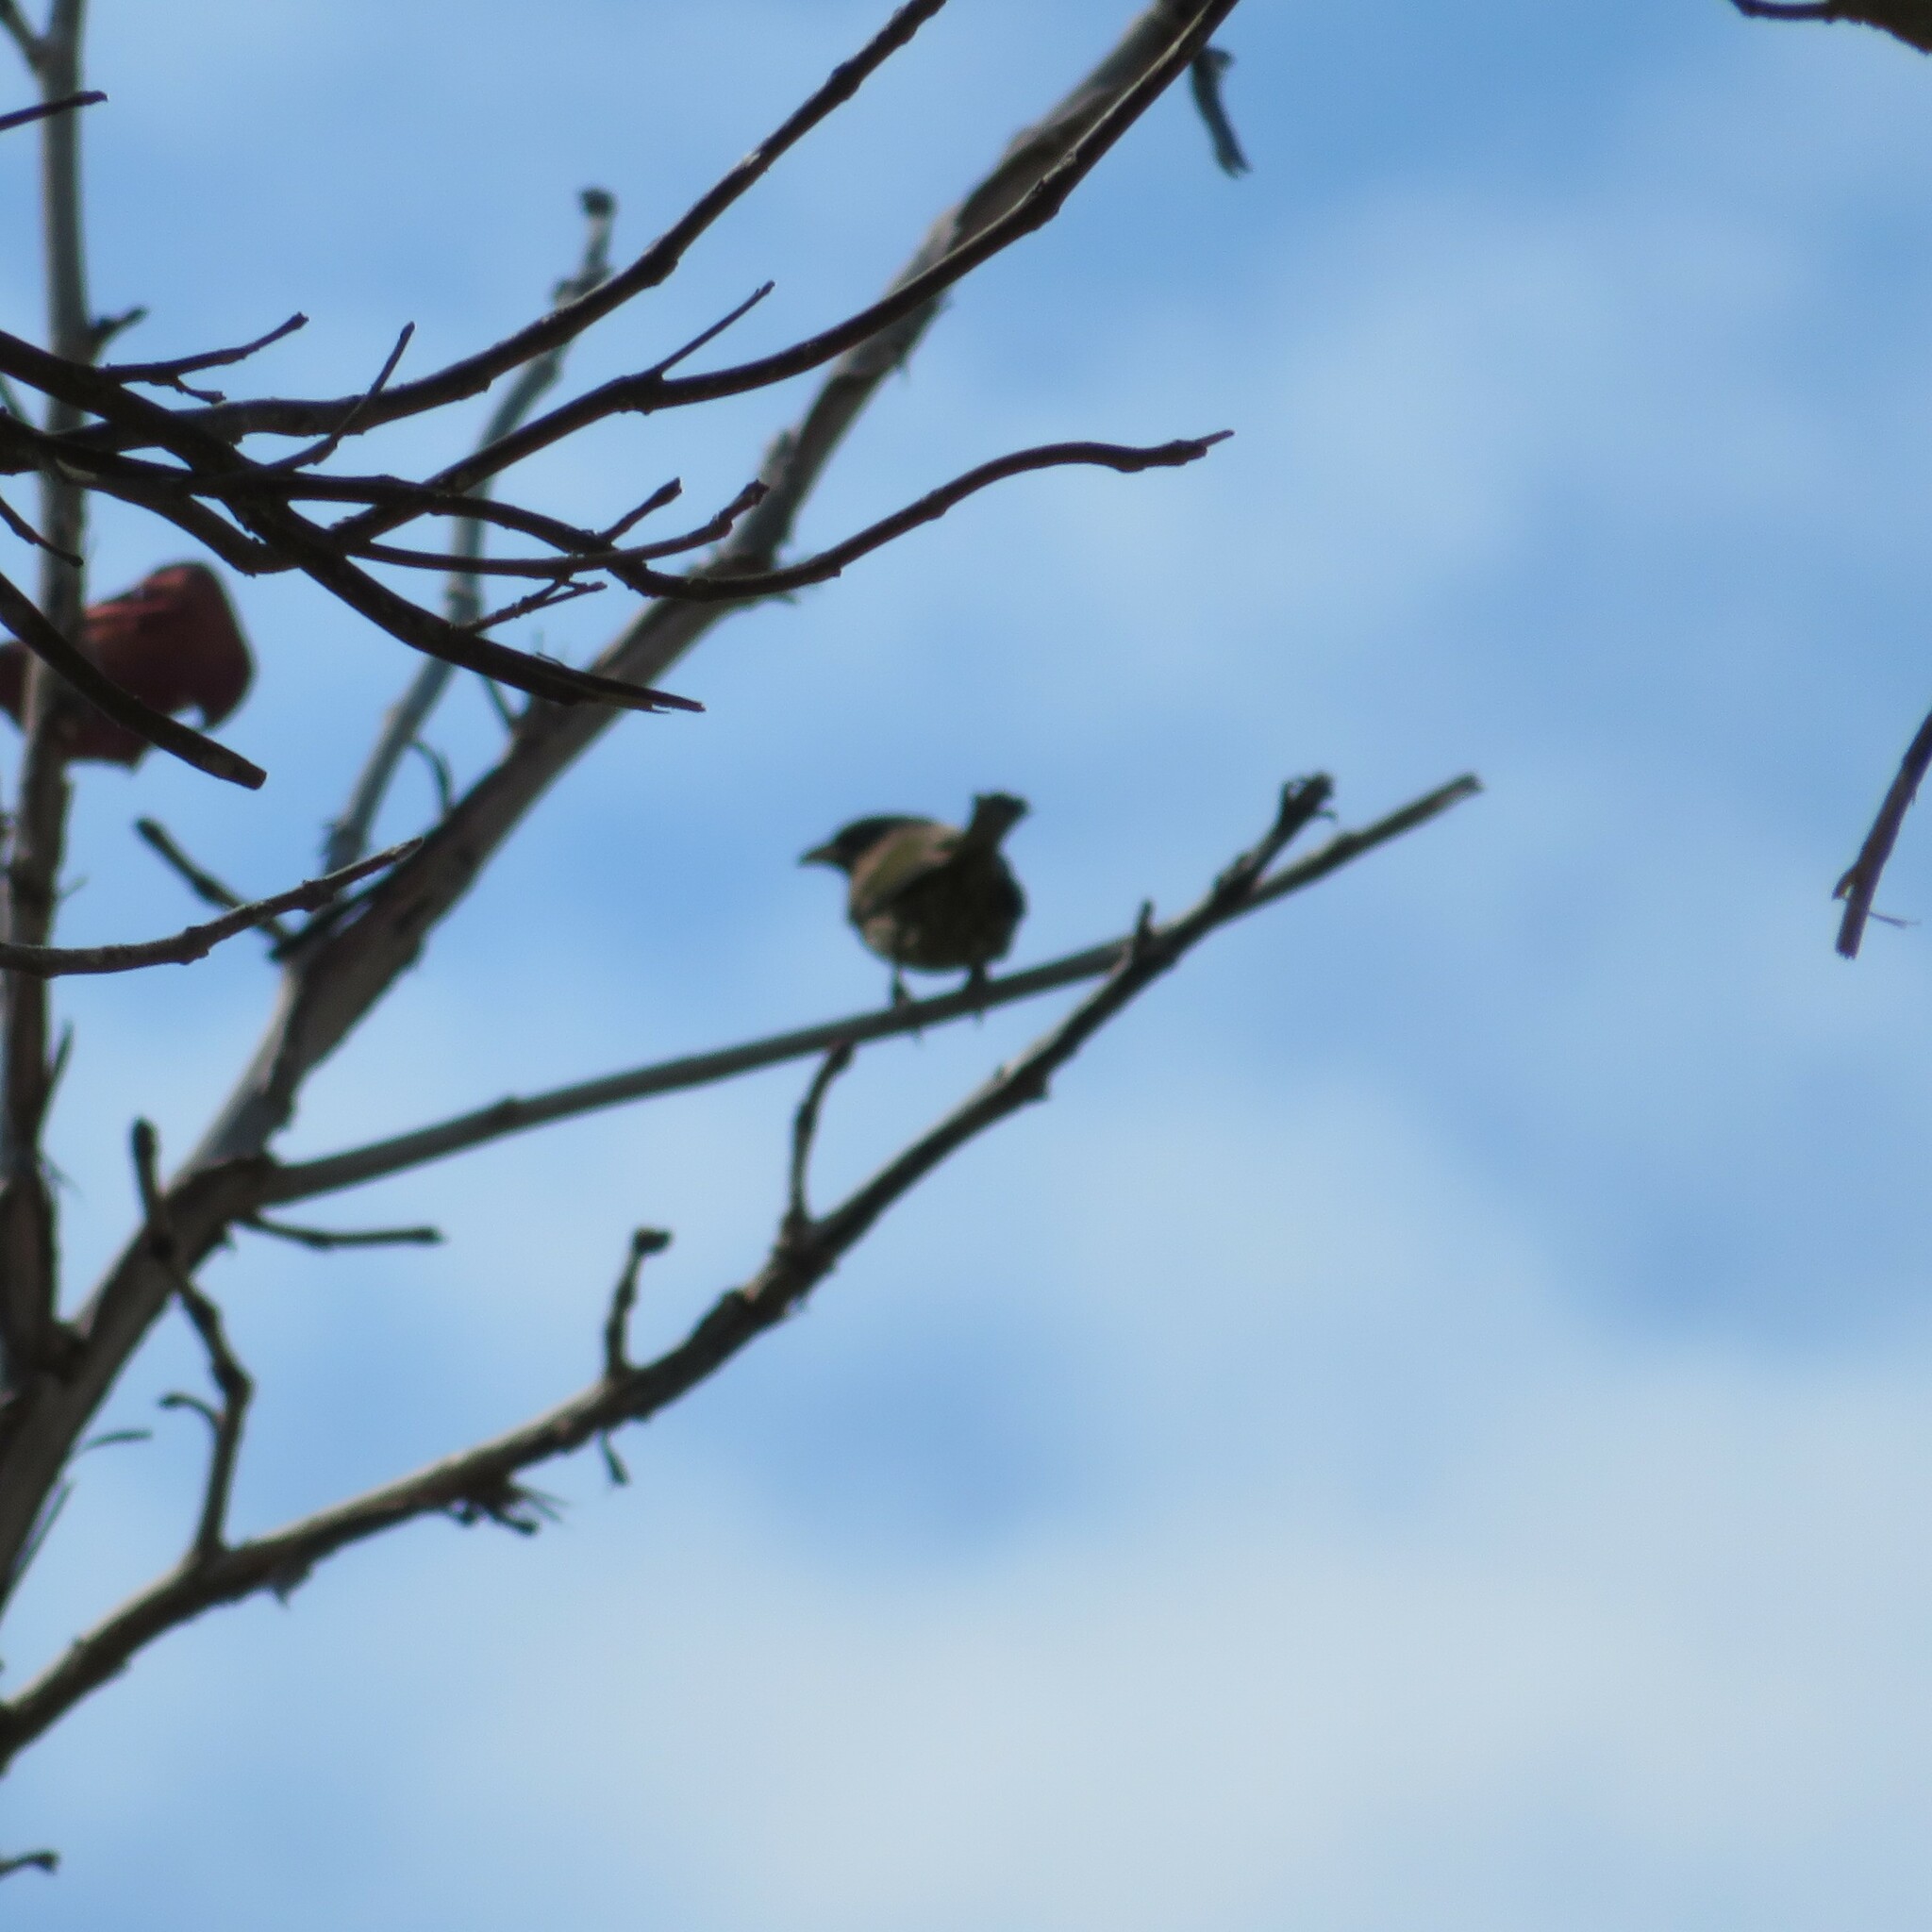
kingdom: Animalia
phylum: Chordata
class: Aves
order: Passeriformes
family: Thraupidae
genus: Melanospiza
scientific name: Melanospiza bicolor
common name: Black-faced grassquit
